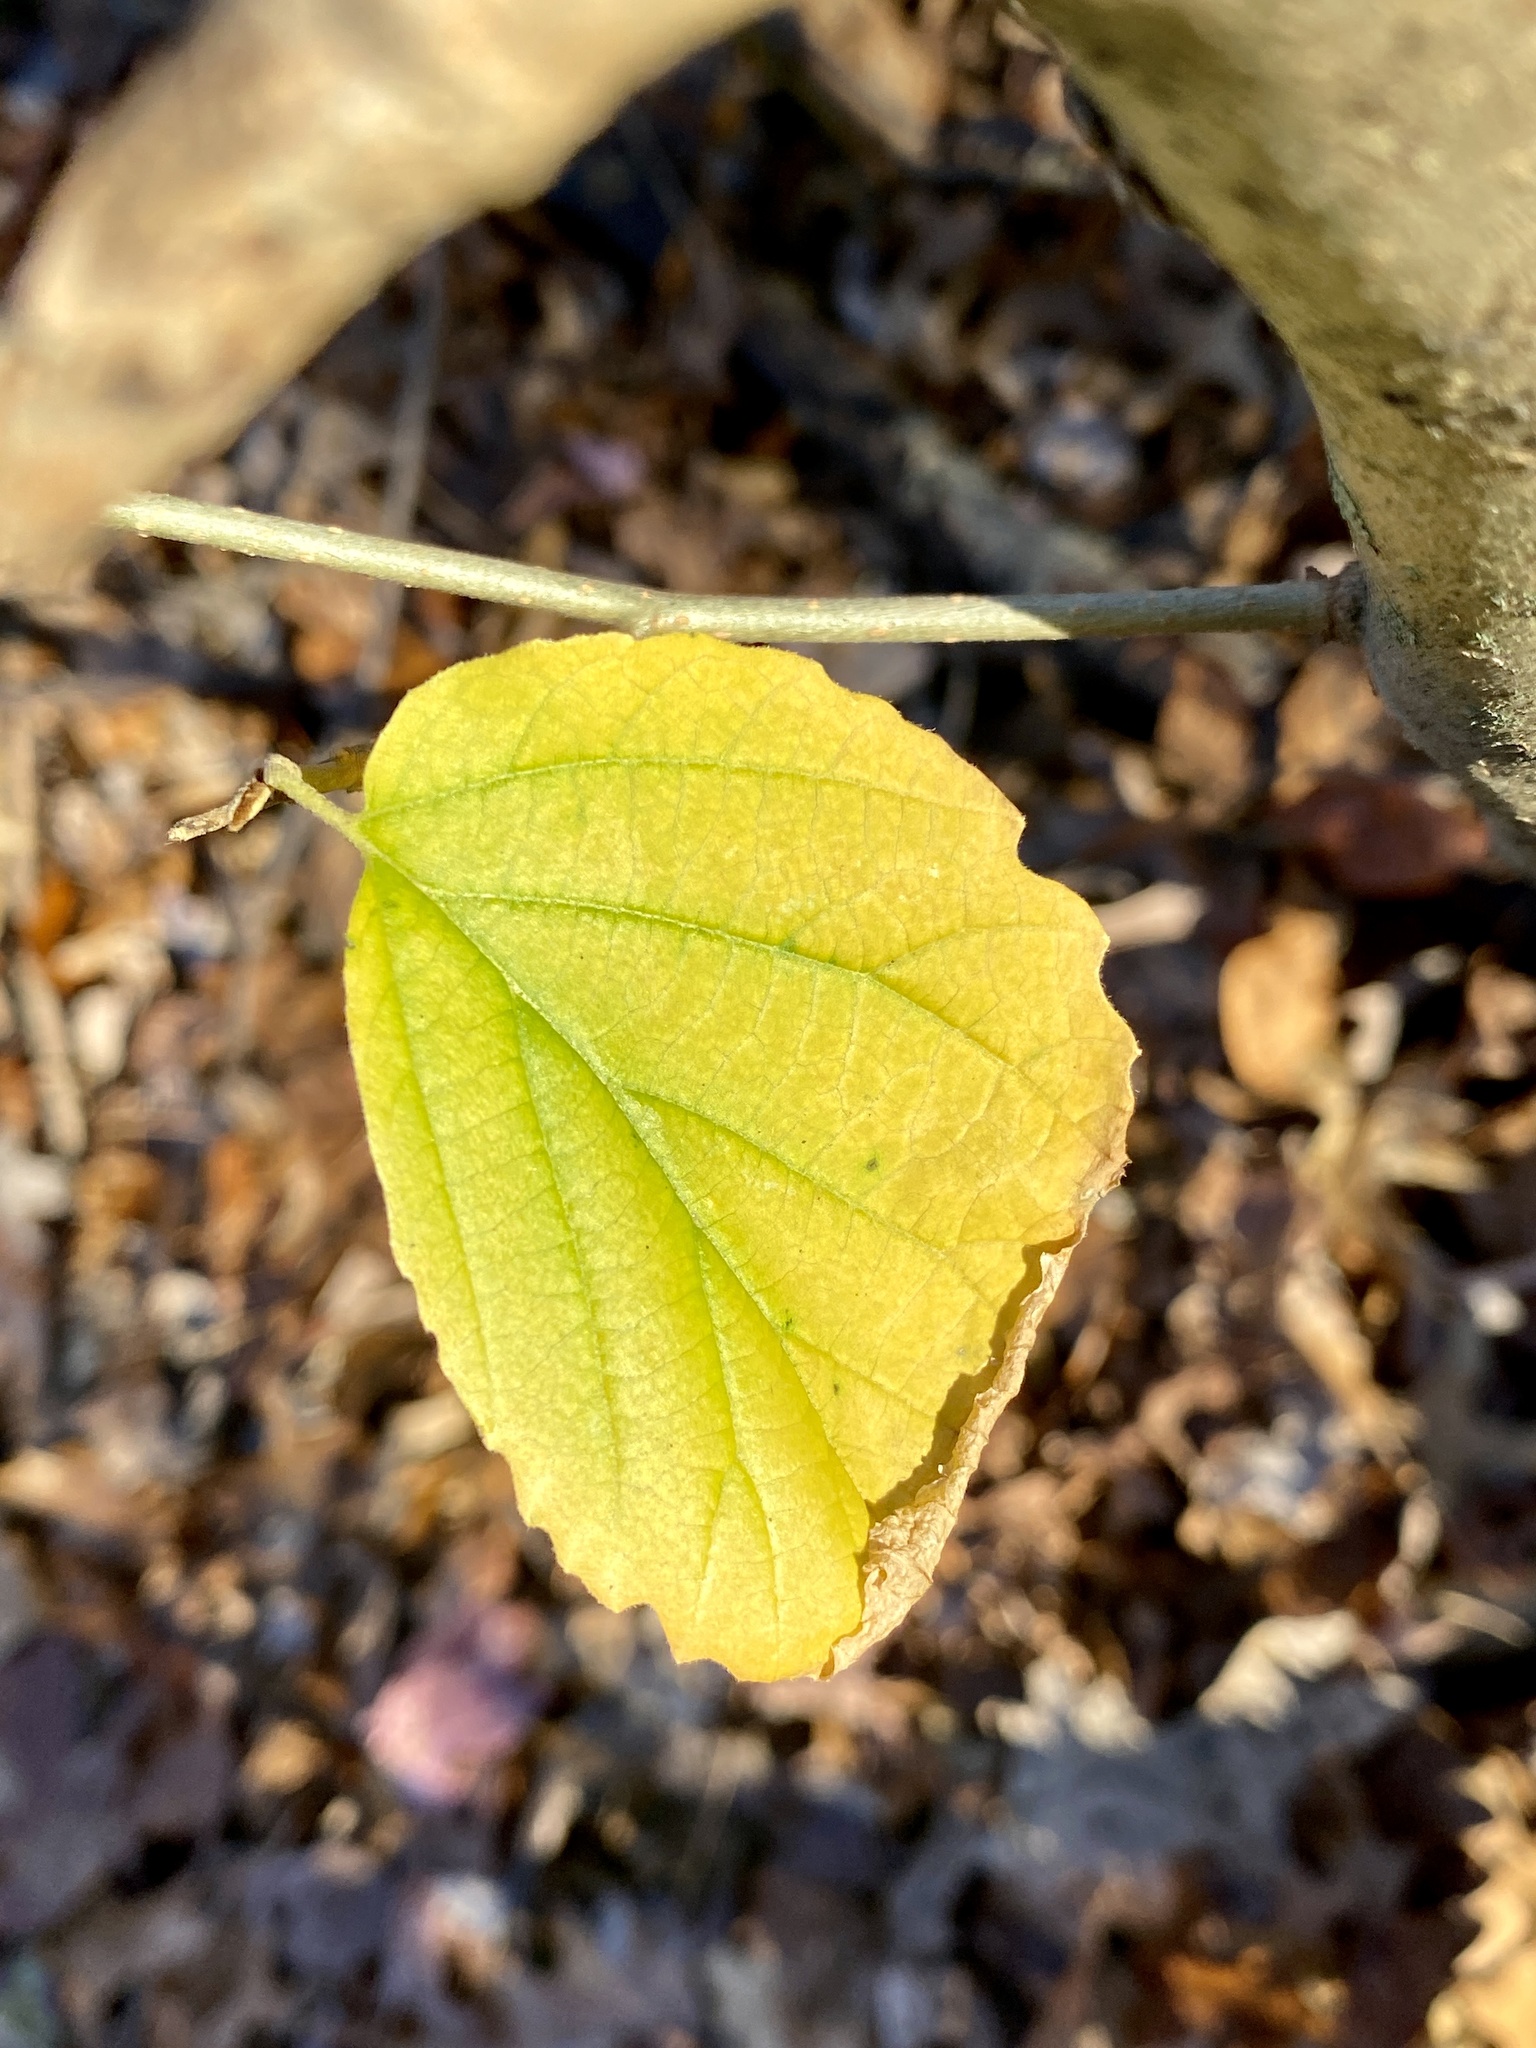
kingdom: Plantae
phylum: Tracheophyta
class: Magnoliopsida
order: Saxifragales
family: Hamamelidaceae
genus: Hamamelis
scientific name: Hamamelis virginiana
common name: Witch-hazel
